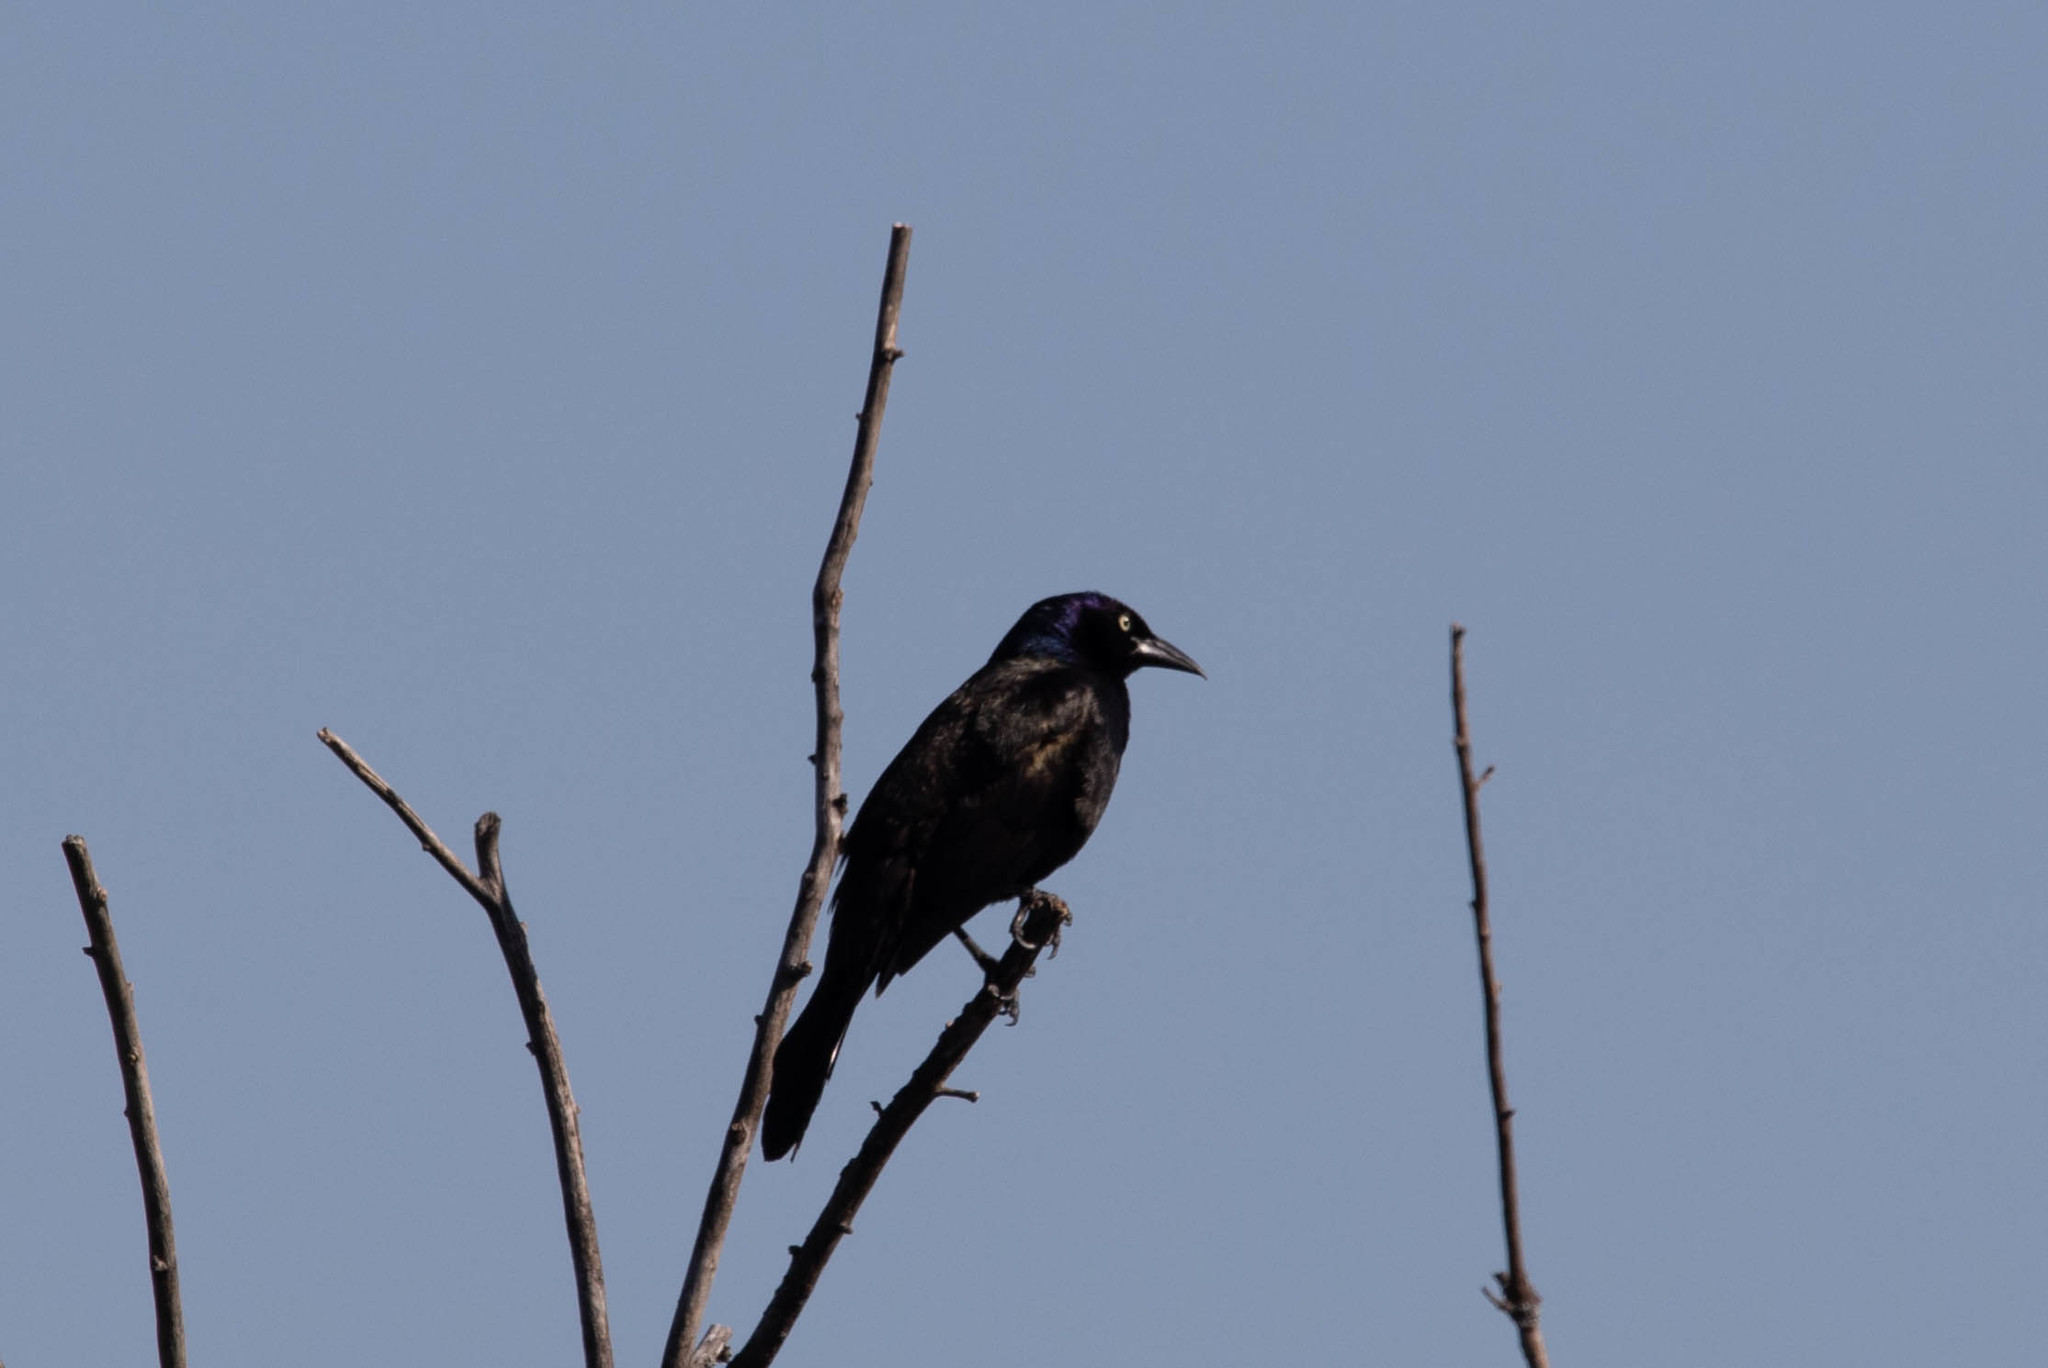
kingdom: Animalia
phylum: Chordata
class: Aves
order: Passeriformes
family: Icteridae
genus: Quiscalus
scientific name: Quiscalus quiscula
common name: Common grackle
